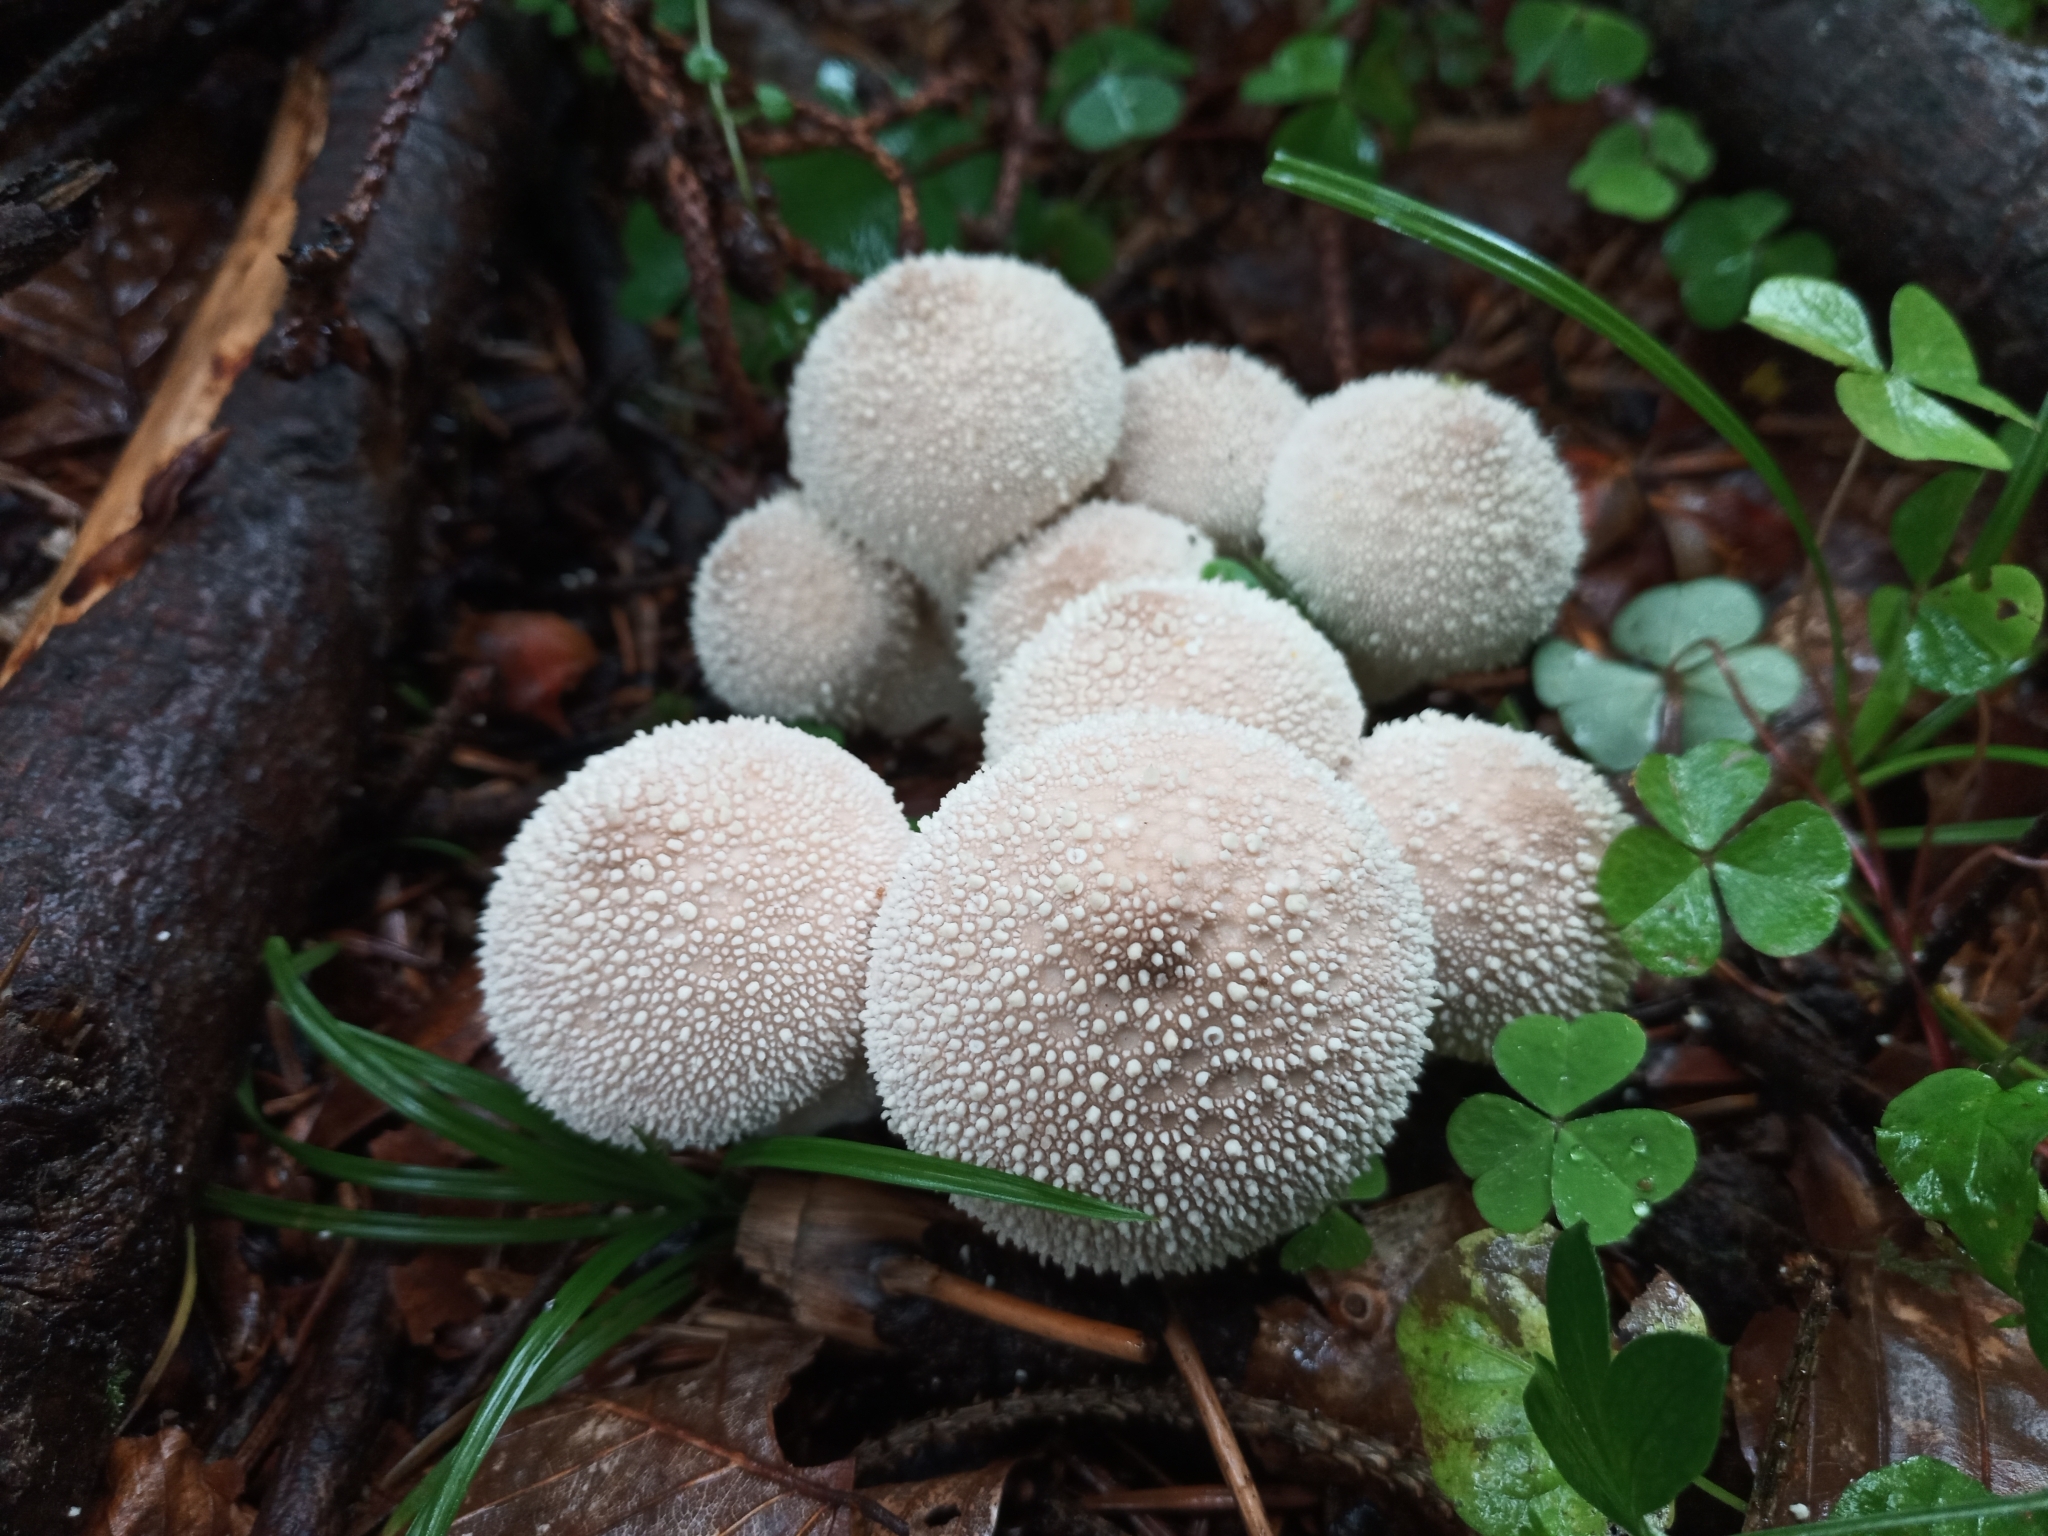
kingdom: Fungi
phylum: Basidiomycota
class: Agaricomycetes
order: Agaricales
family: Lycoperdaceae
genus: Lycoperdon
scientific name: Lycoperdon perlatum
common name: Common puffball
